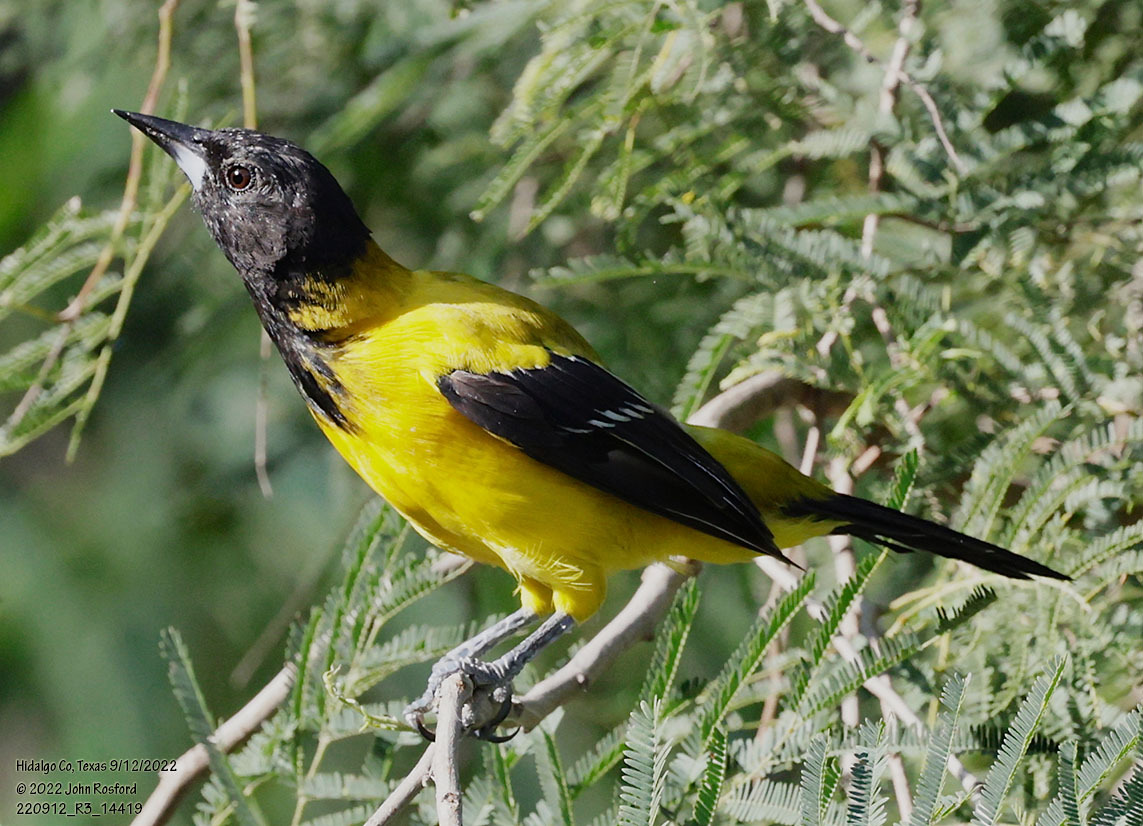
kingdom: Animalia
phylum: Chordata
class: Aves
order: Passeriformes
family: Icteridae
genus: Icterus
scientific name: Icterus graduacauda
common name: Audubon's oriole
